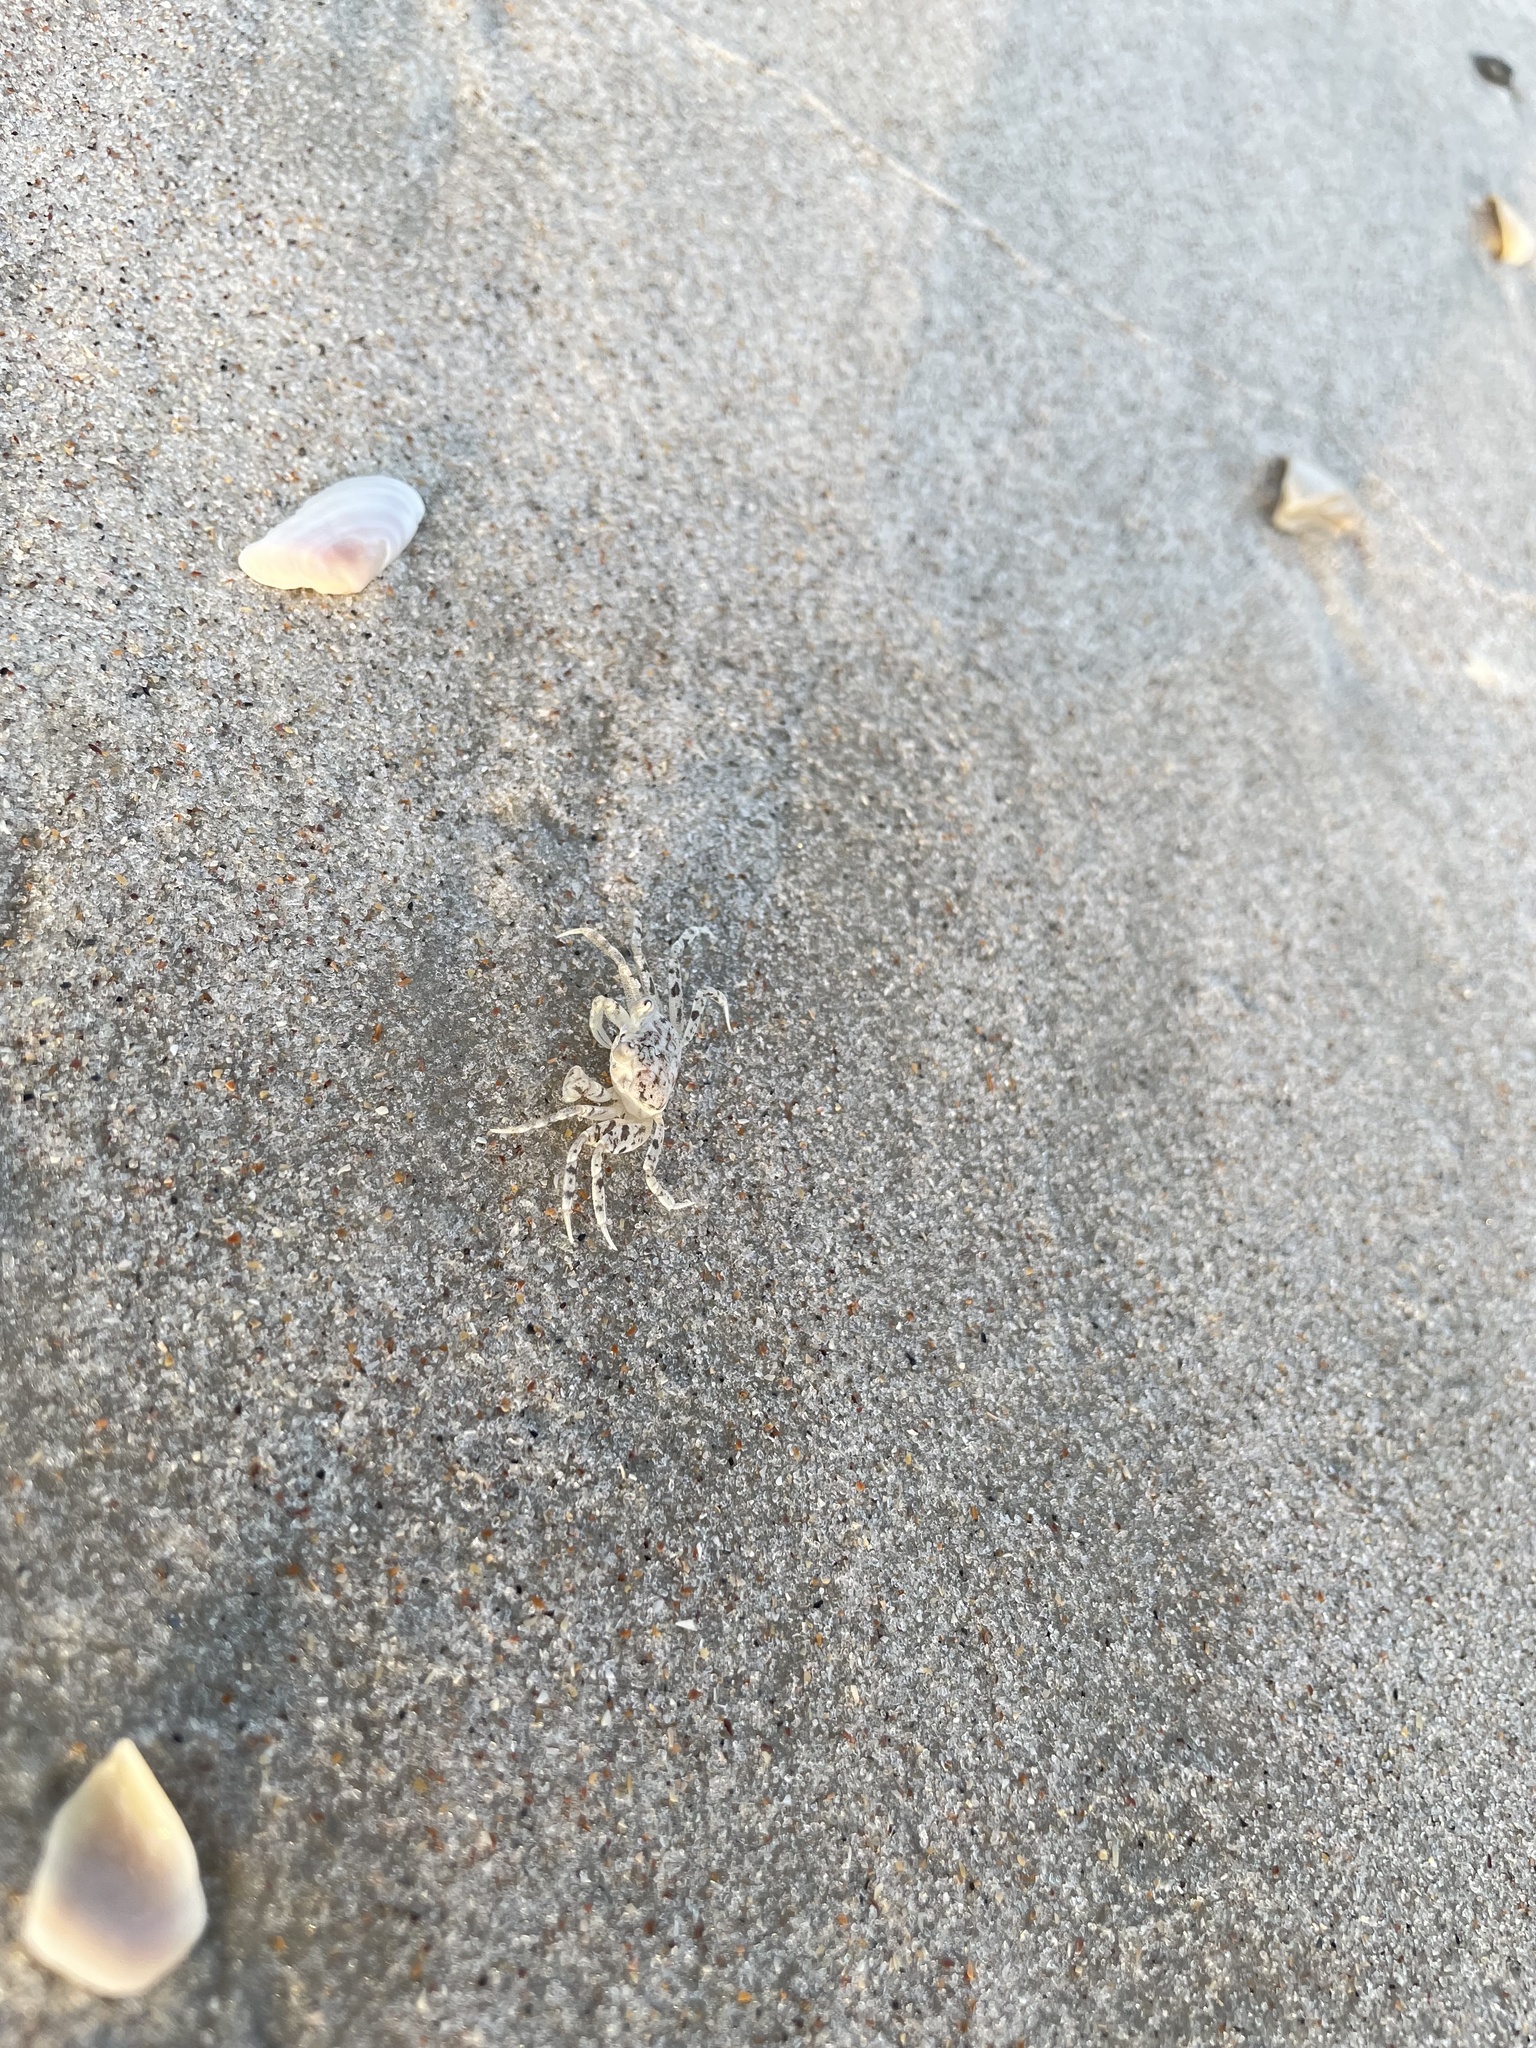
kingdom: Animalia
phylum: Arthropoda
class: Malacostraca
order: Decapoda
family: Ocypodidae
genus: Ocypode
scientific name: Ocypode quadrata
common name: Ghost crab
